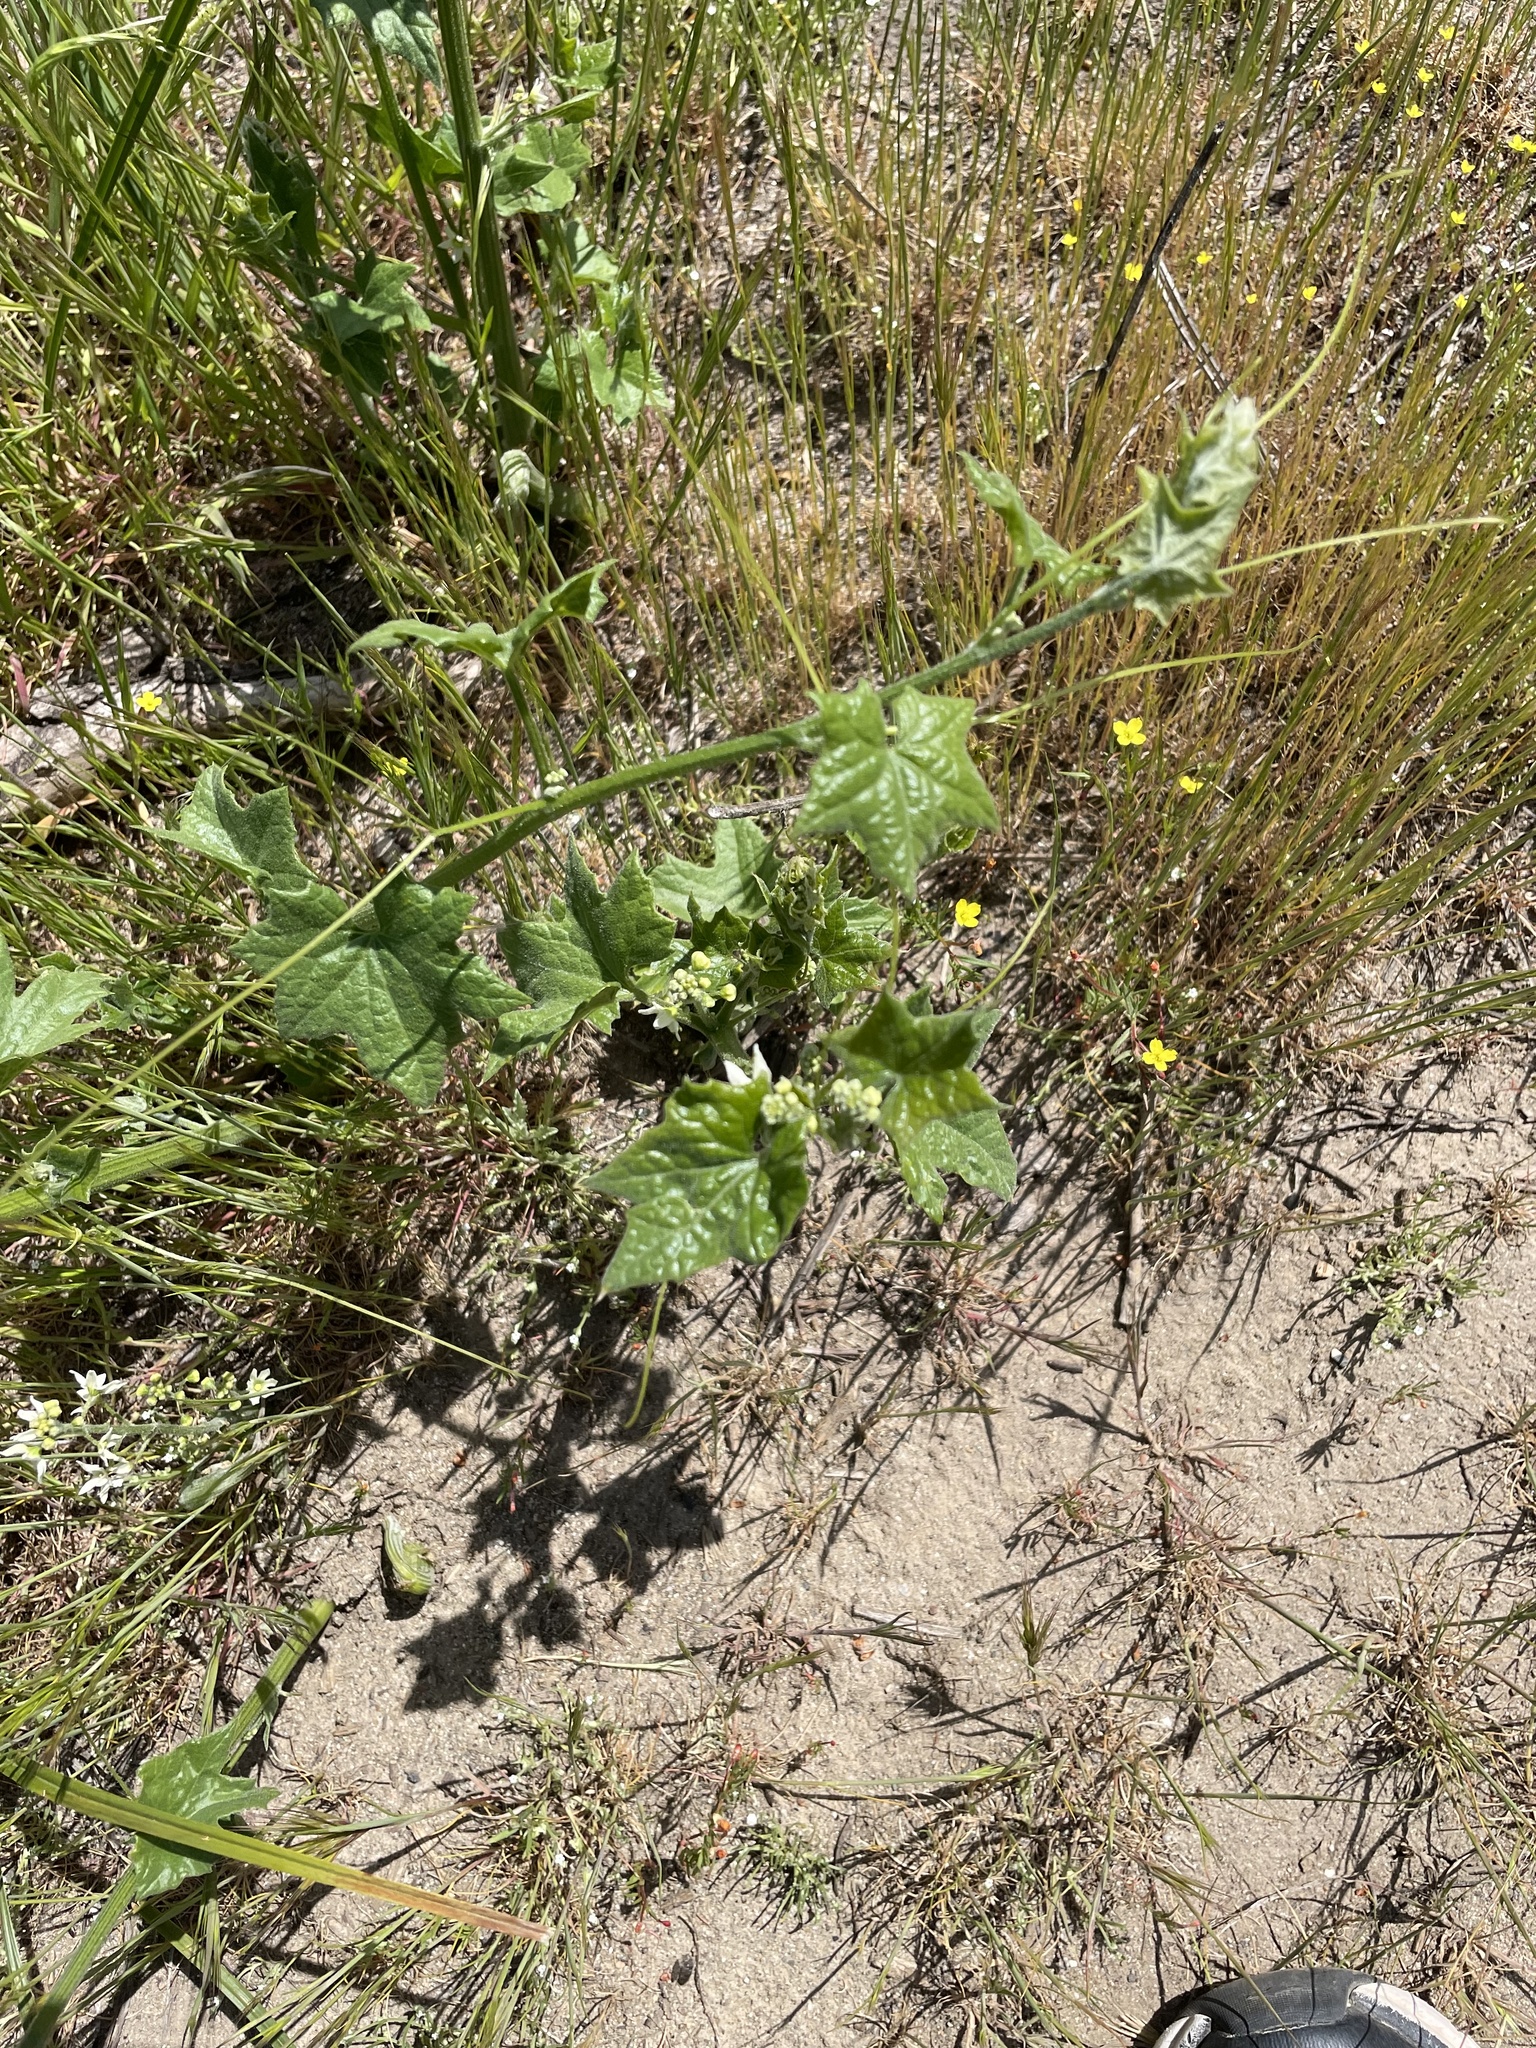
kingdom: Plantae
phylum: Tracheophyta
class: Magnoliopsida
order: Cucurbitales
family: Cucurbitaceae
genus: Marah
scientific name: Marah fabacea
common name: California manroot
